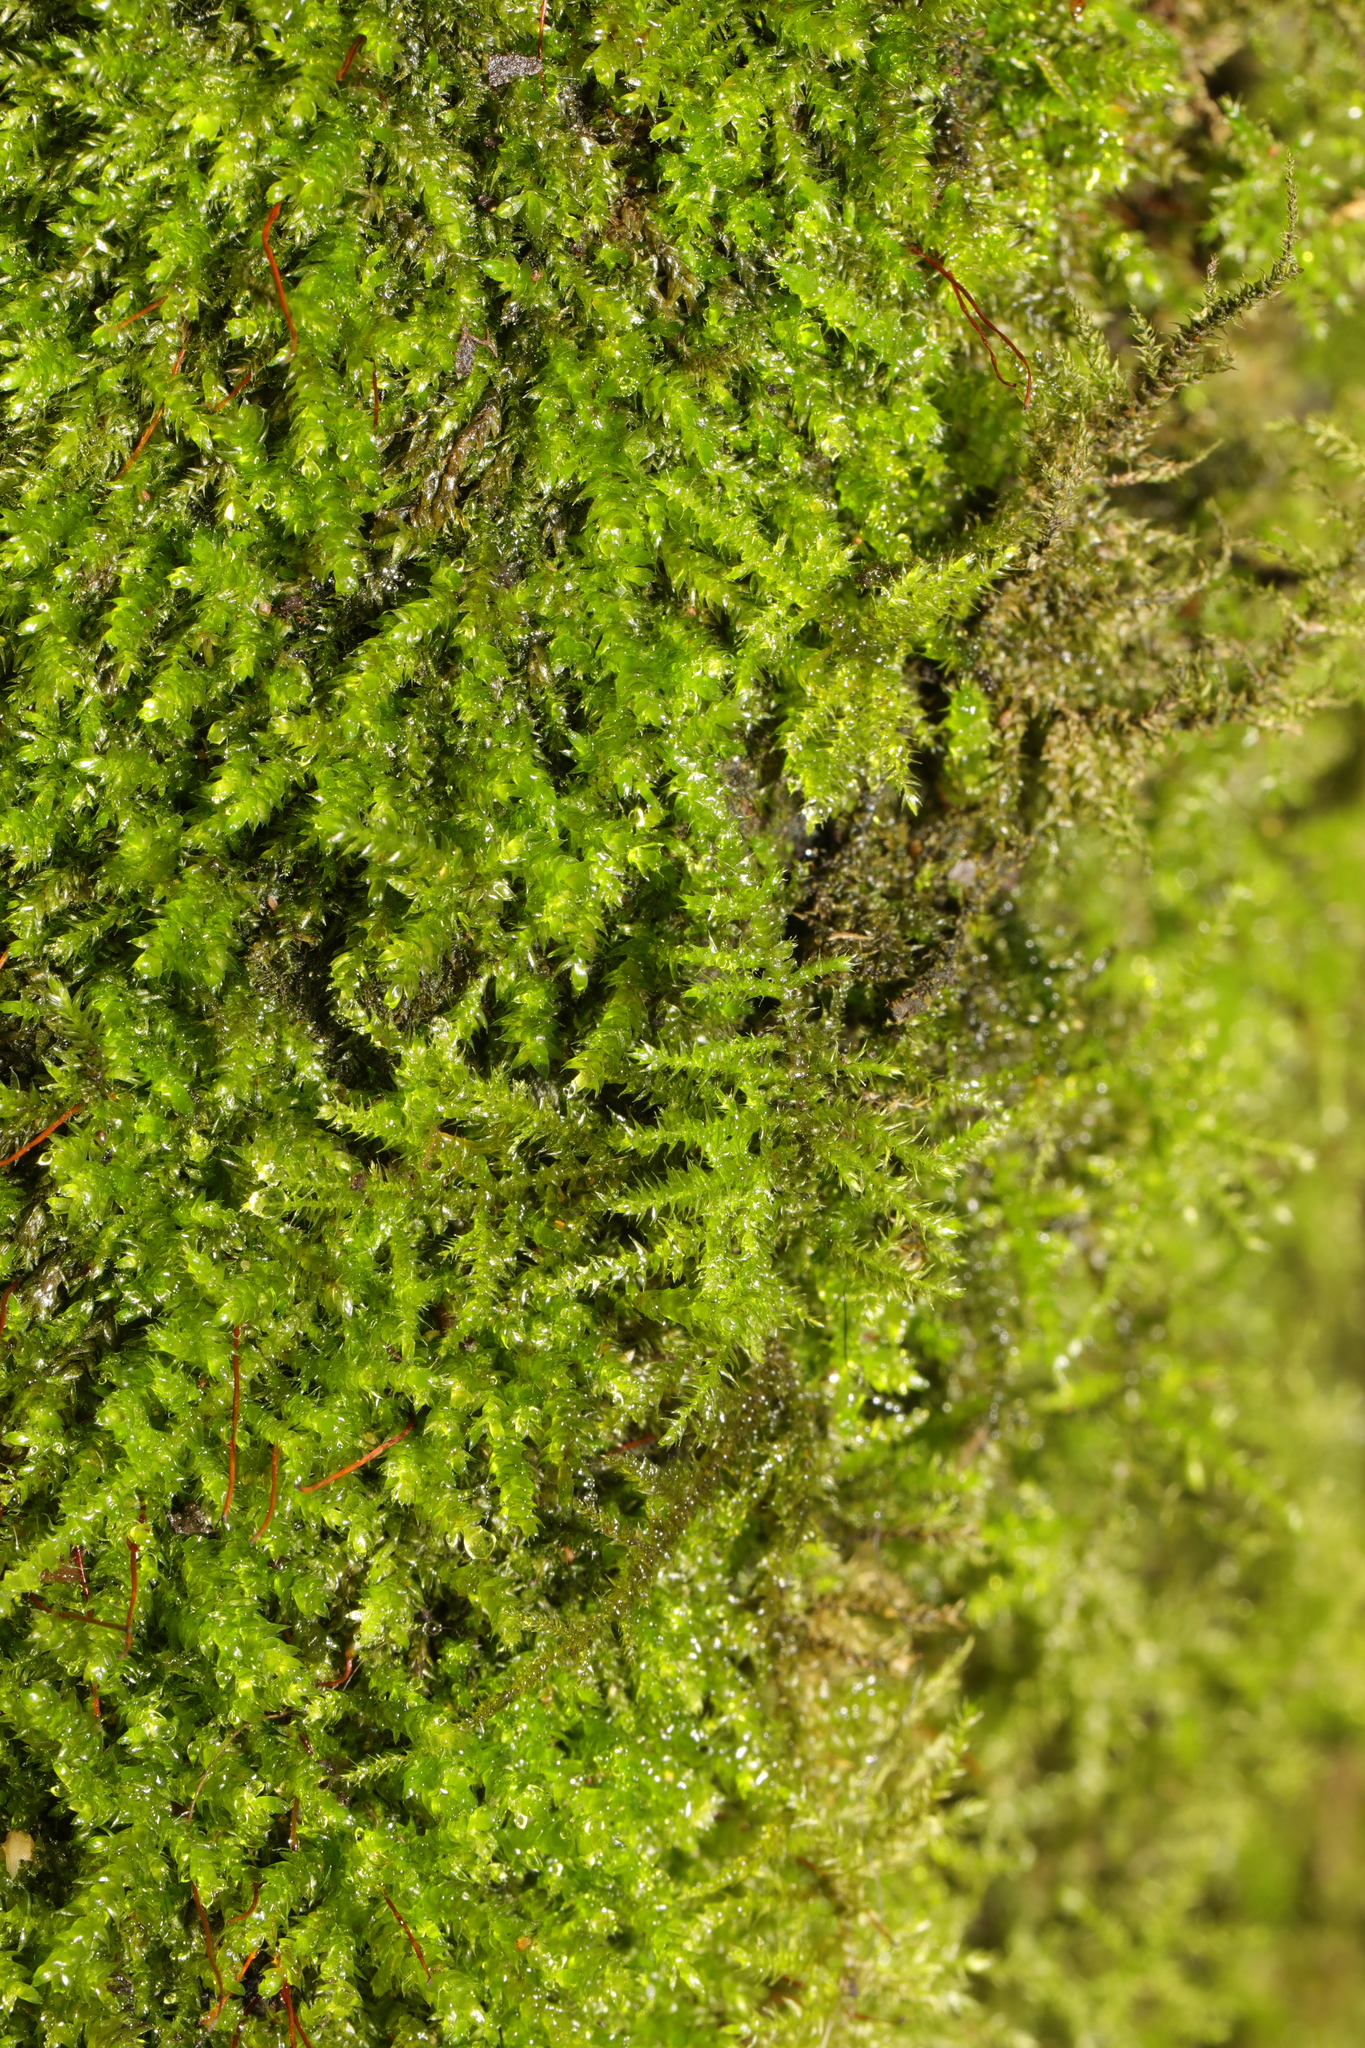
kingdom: Plantae
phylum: Bryophyta
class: Bryopsida
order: Hypnales
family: Brachytheciaceae
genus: Kindbergia
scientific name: Kindbergia praelonga
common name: Slender beaked moss
